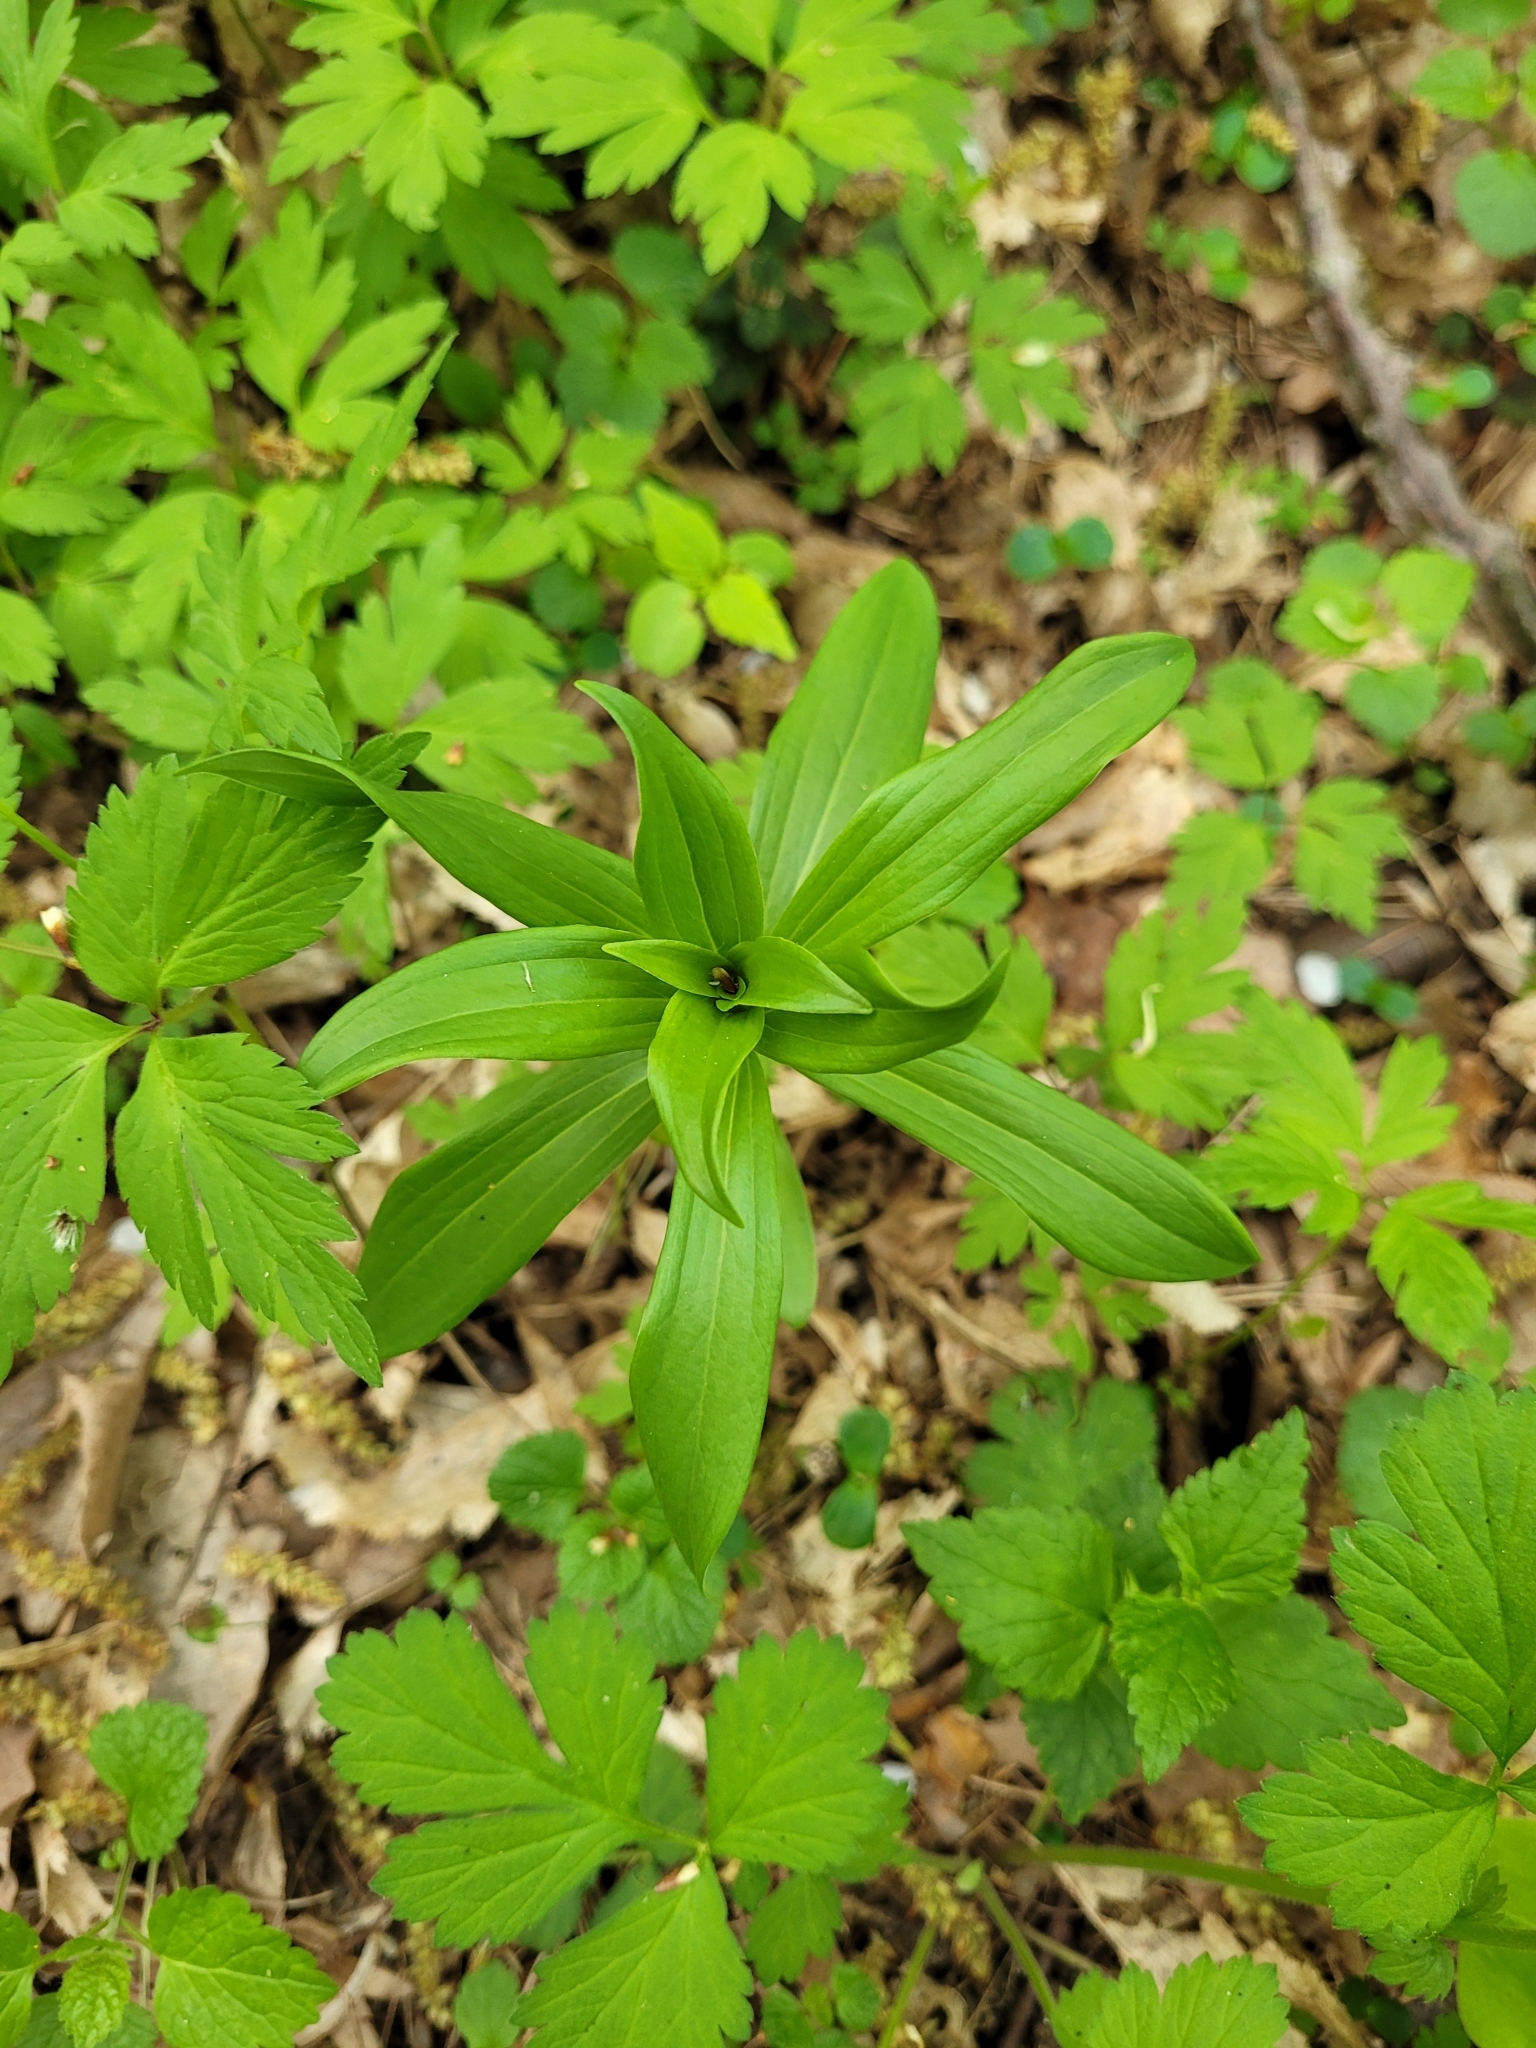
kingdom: Plantae
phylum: Tracheophyta
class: Liliopsida
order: Liliales
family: Liliaceae
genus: Lilium
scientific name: Lilium martagon
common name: Martagon lily
